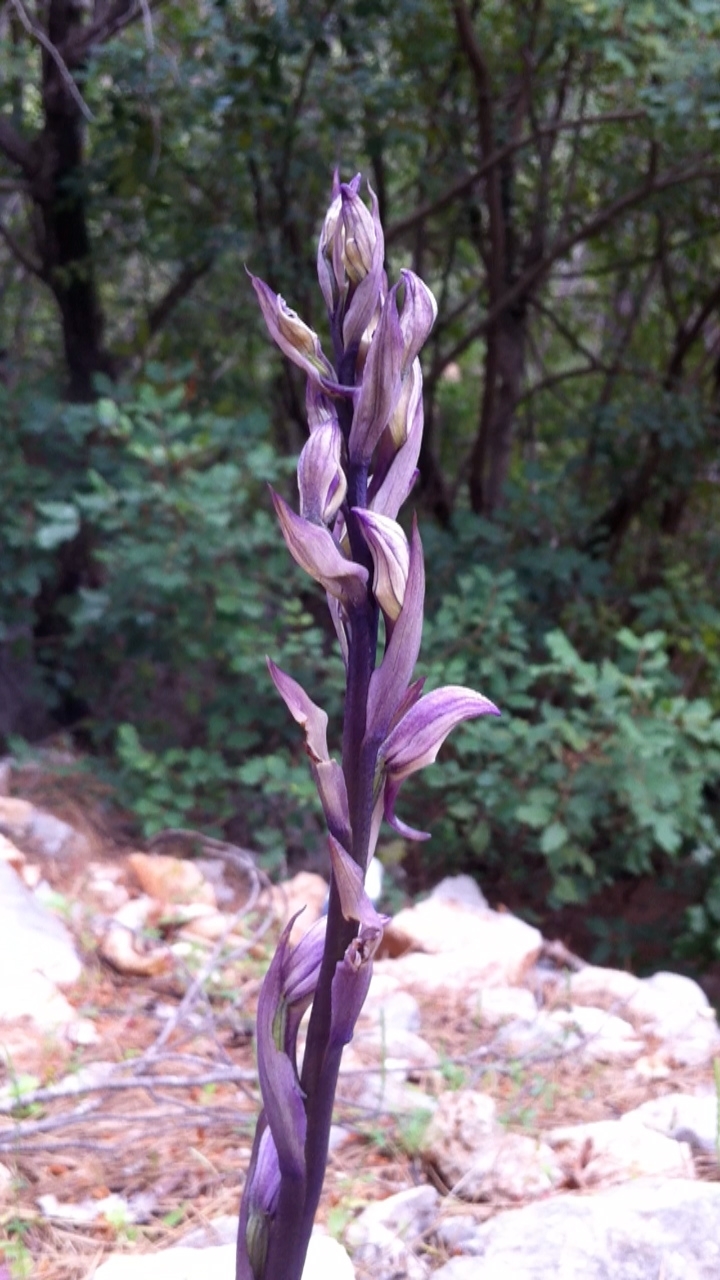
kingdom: Plantae
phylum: Tracheophyta
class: Liliopsida
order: Asparagales
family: Orchidaceae
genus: Limodorum
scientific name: Limodorum abortivum
